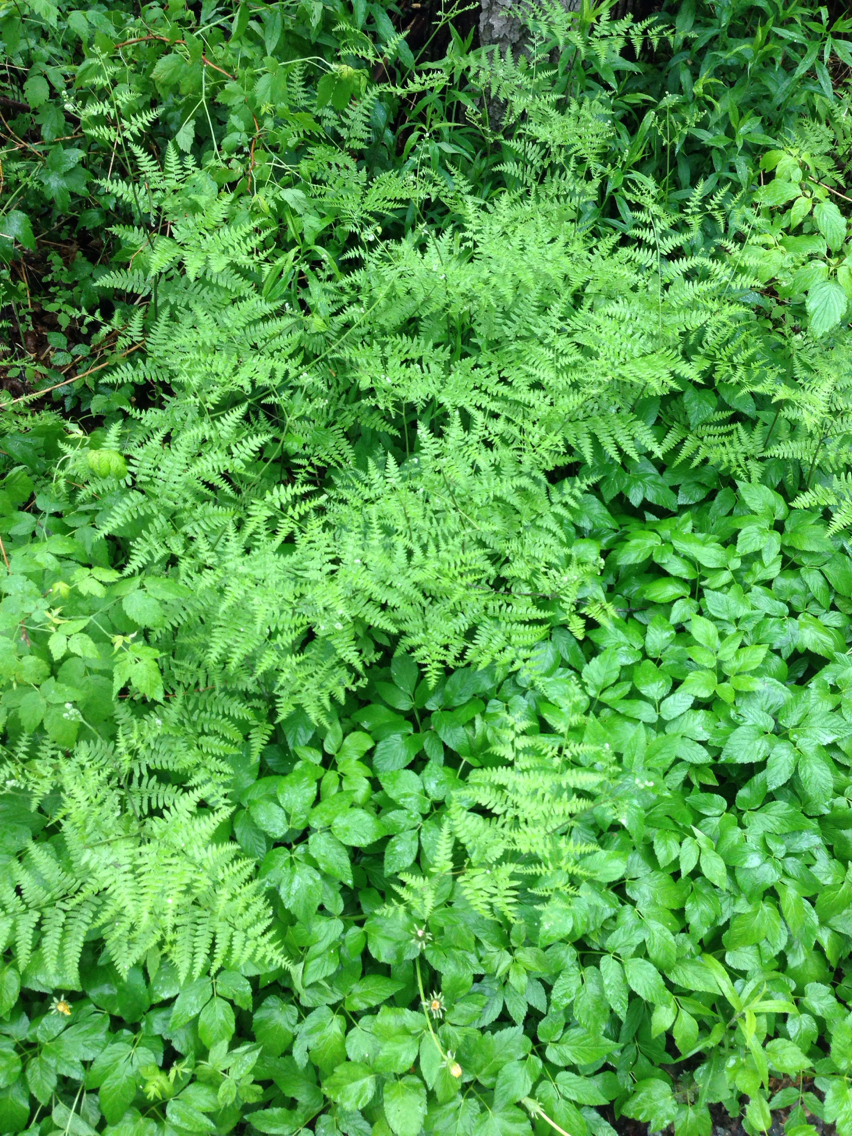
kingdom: Plantae
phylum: Tracheophyta
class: Polypodiopsida
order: Polypodiales
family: Dennstaedtiaceae
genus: Pteridium
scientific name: Pteridium aquilinum
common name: Bracken
